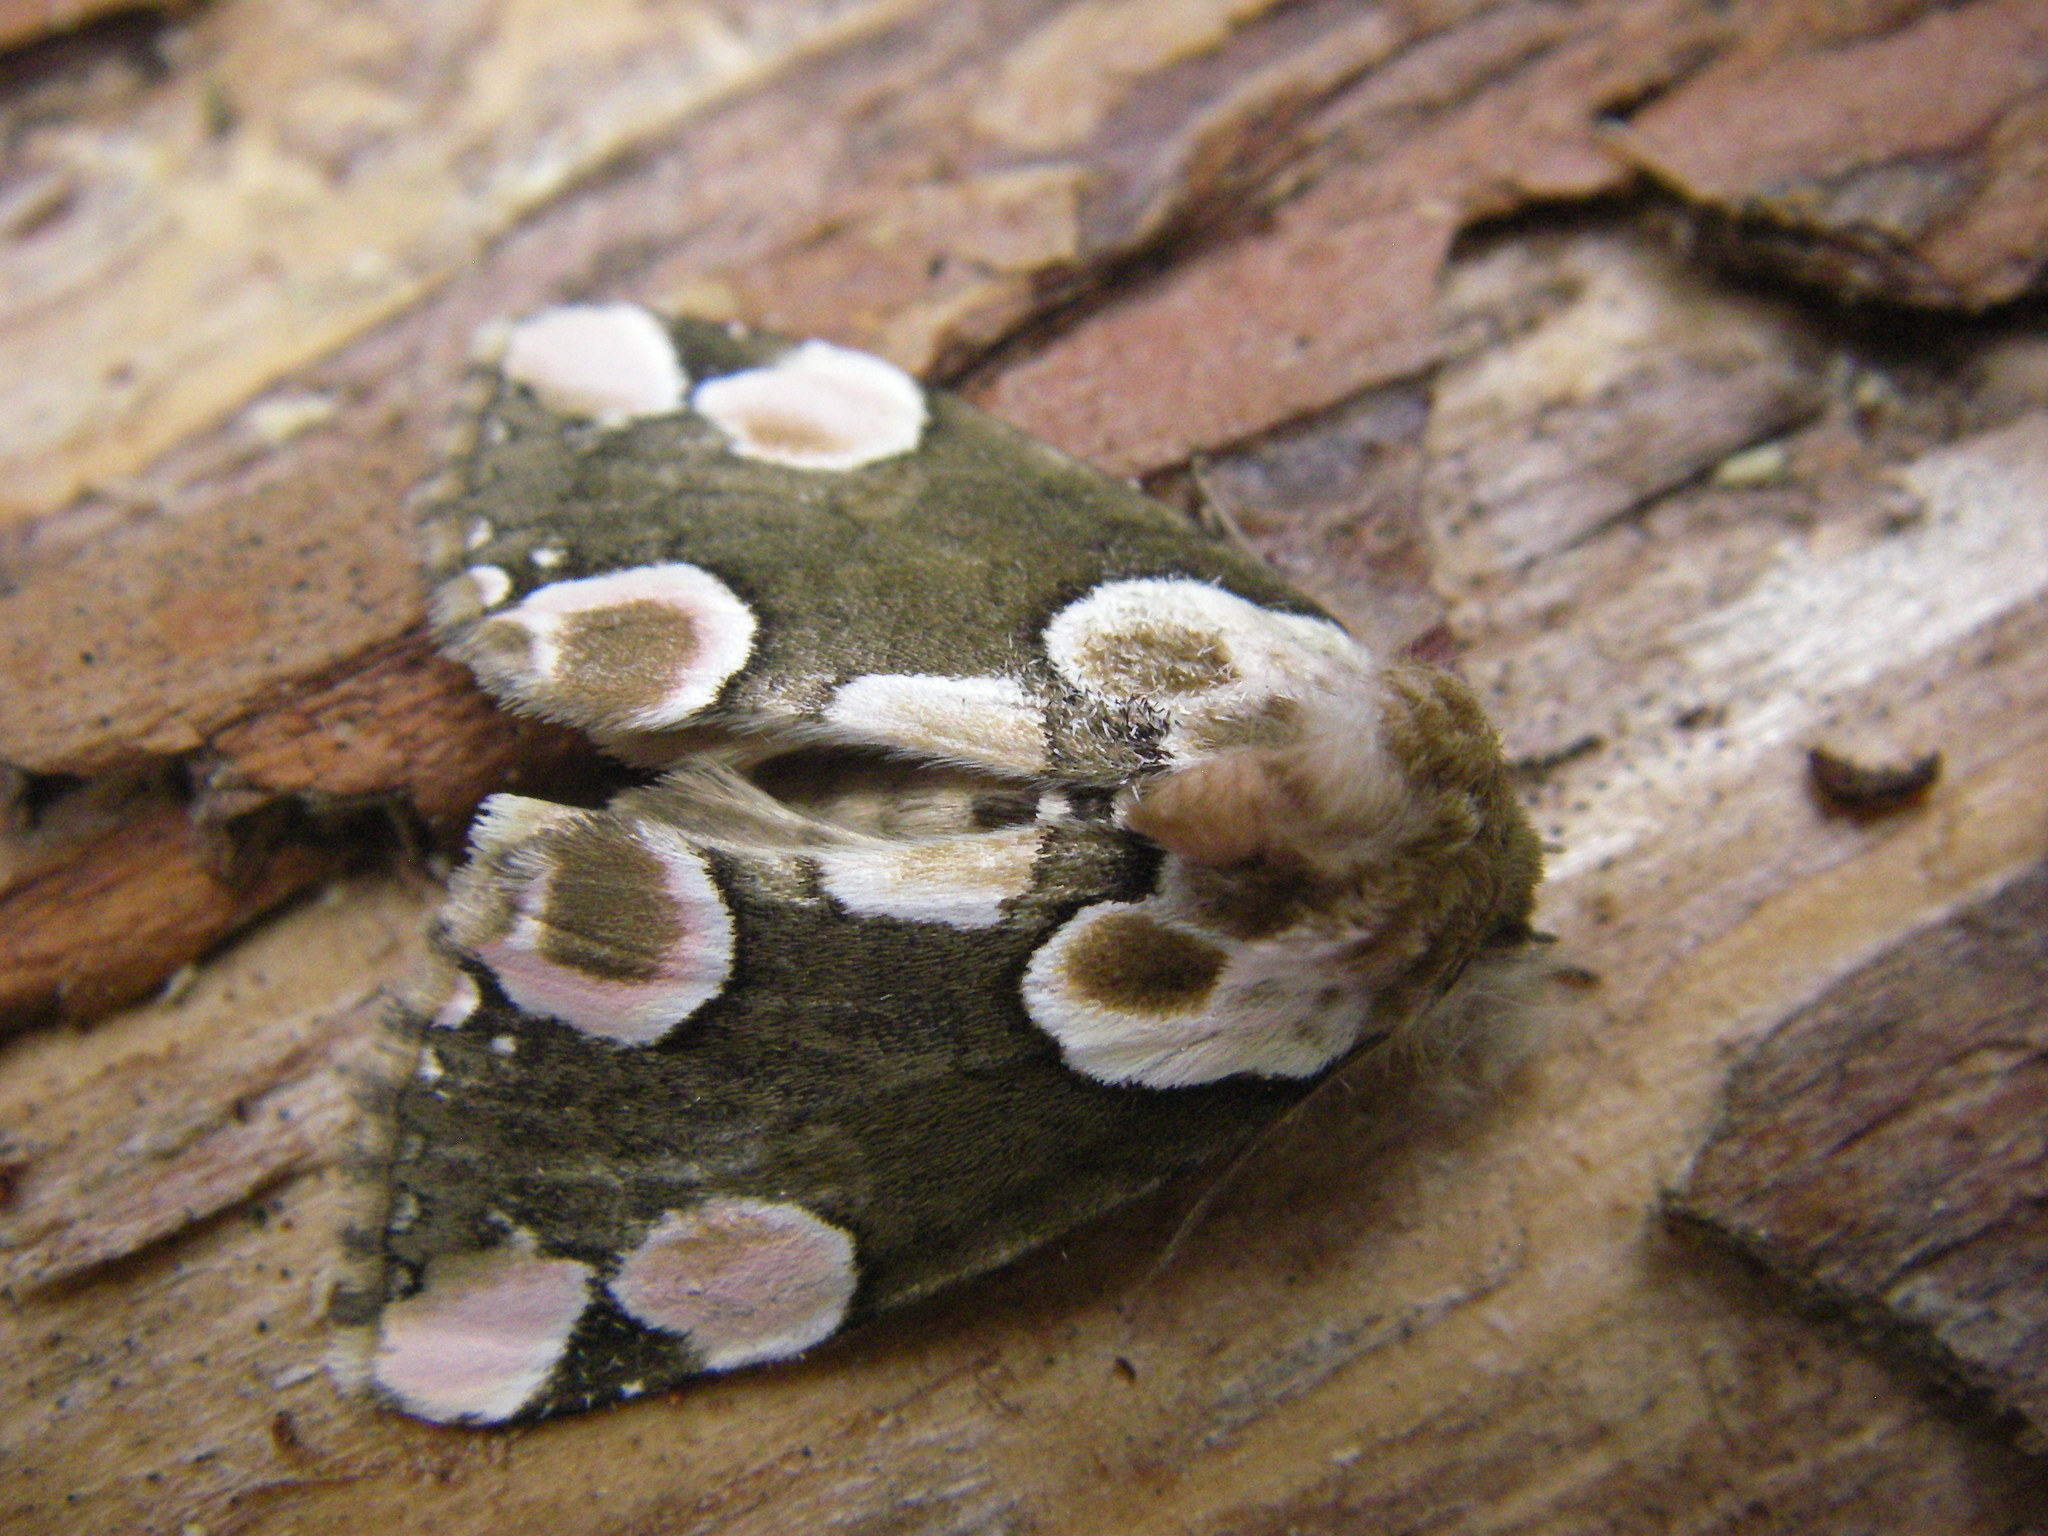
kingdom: Animalia
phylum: Arthropoda
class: Insecta
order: Lepidoptera
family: Drepanidae
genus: Thyatira
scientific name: Thyatira batis
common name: Peach blossom
